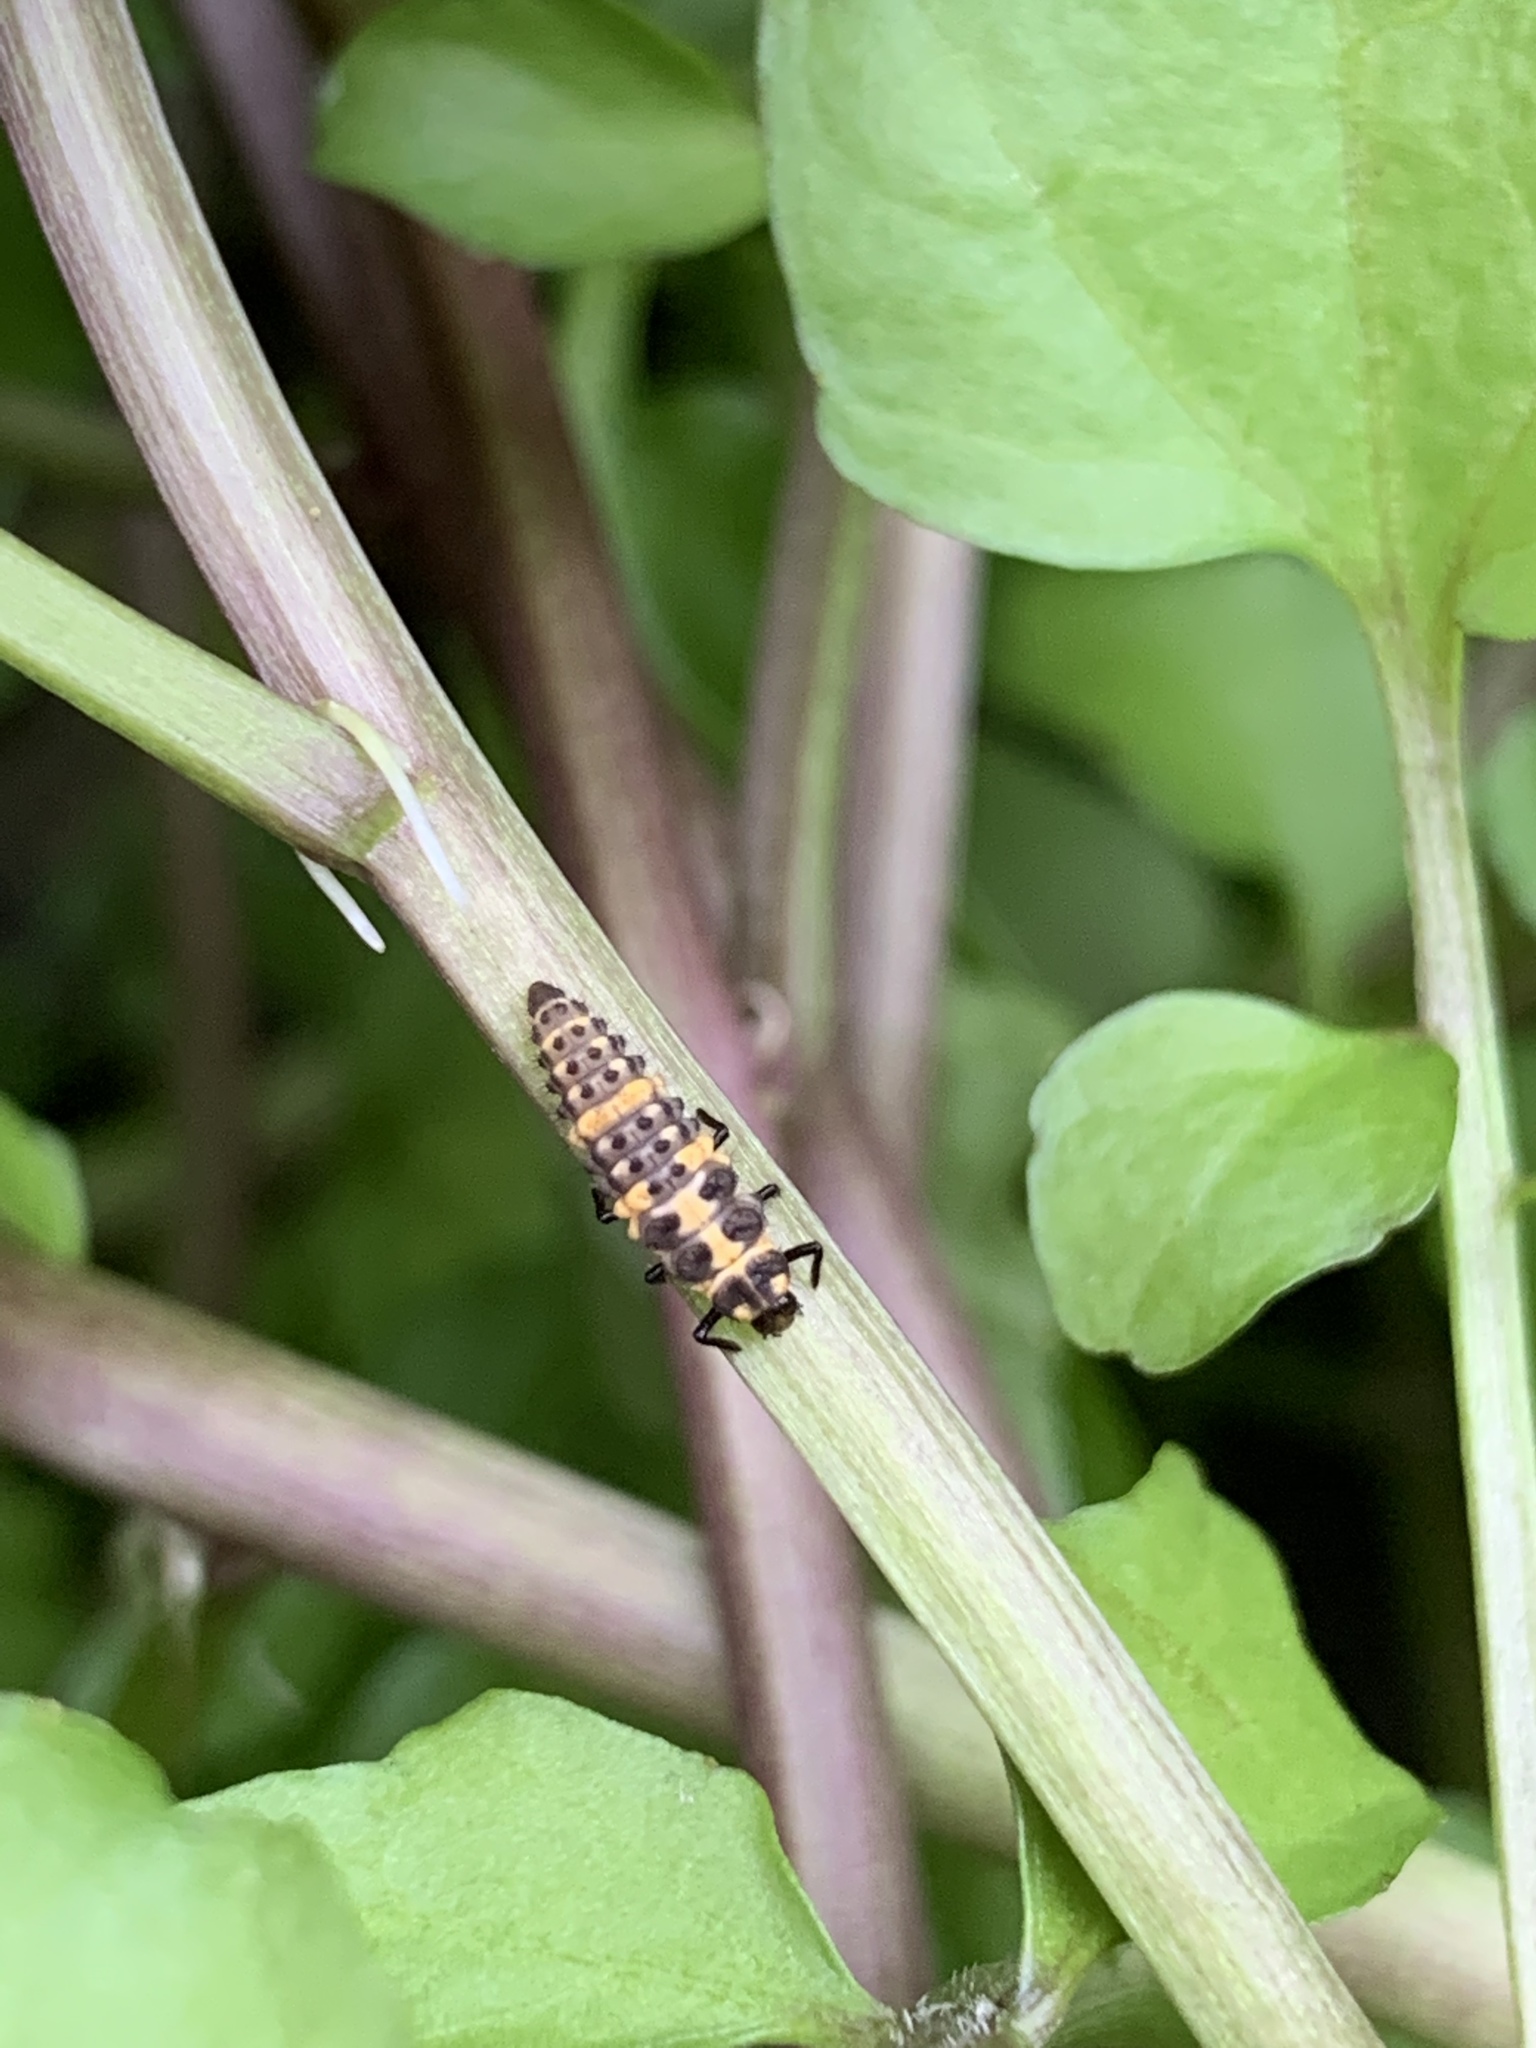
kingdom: Animalia
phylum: Arthropoda
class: Insecta
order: Coleoptera
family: Coccinellidae
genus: Coleomegilla
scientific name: Coleomegilla maculata
